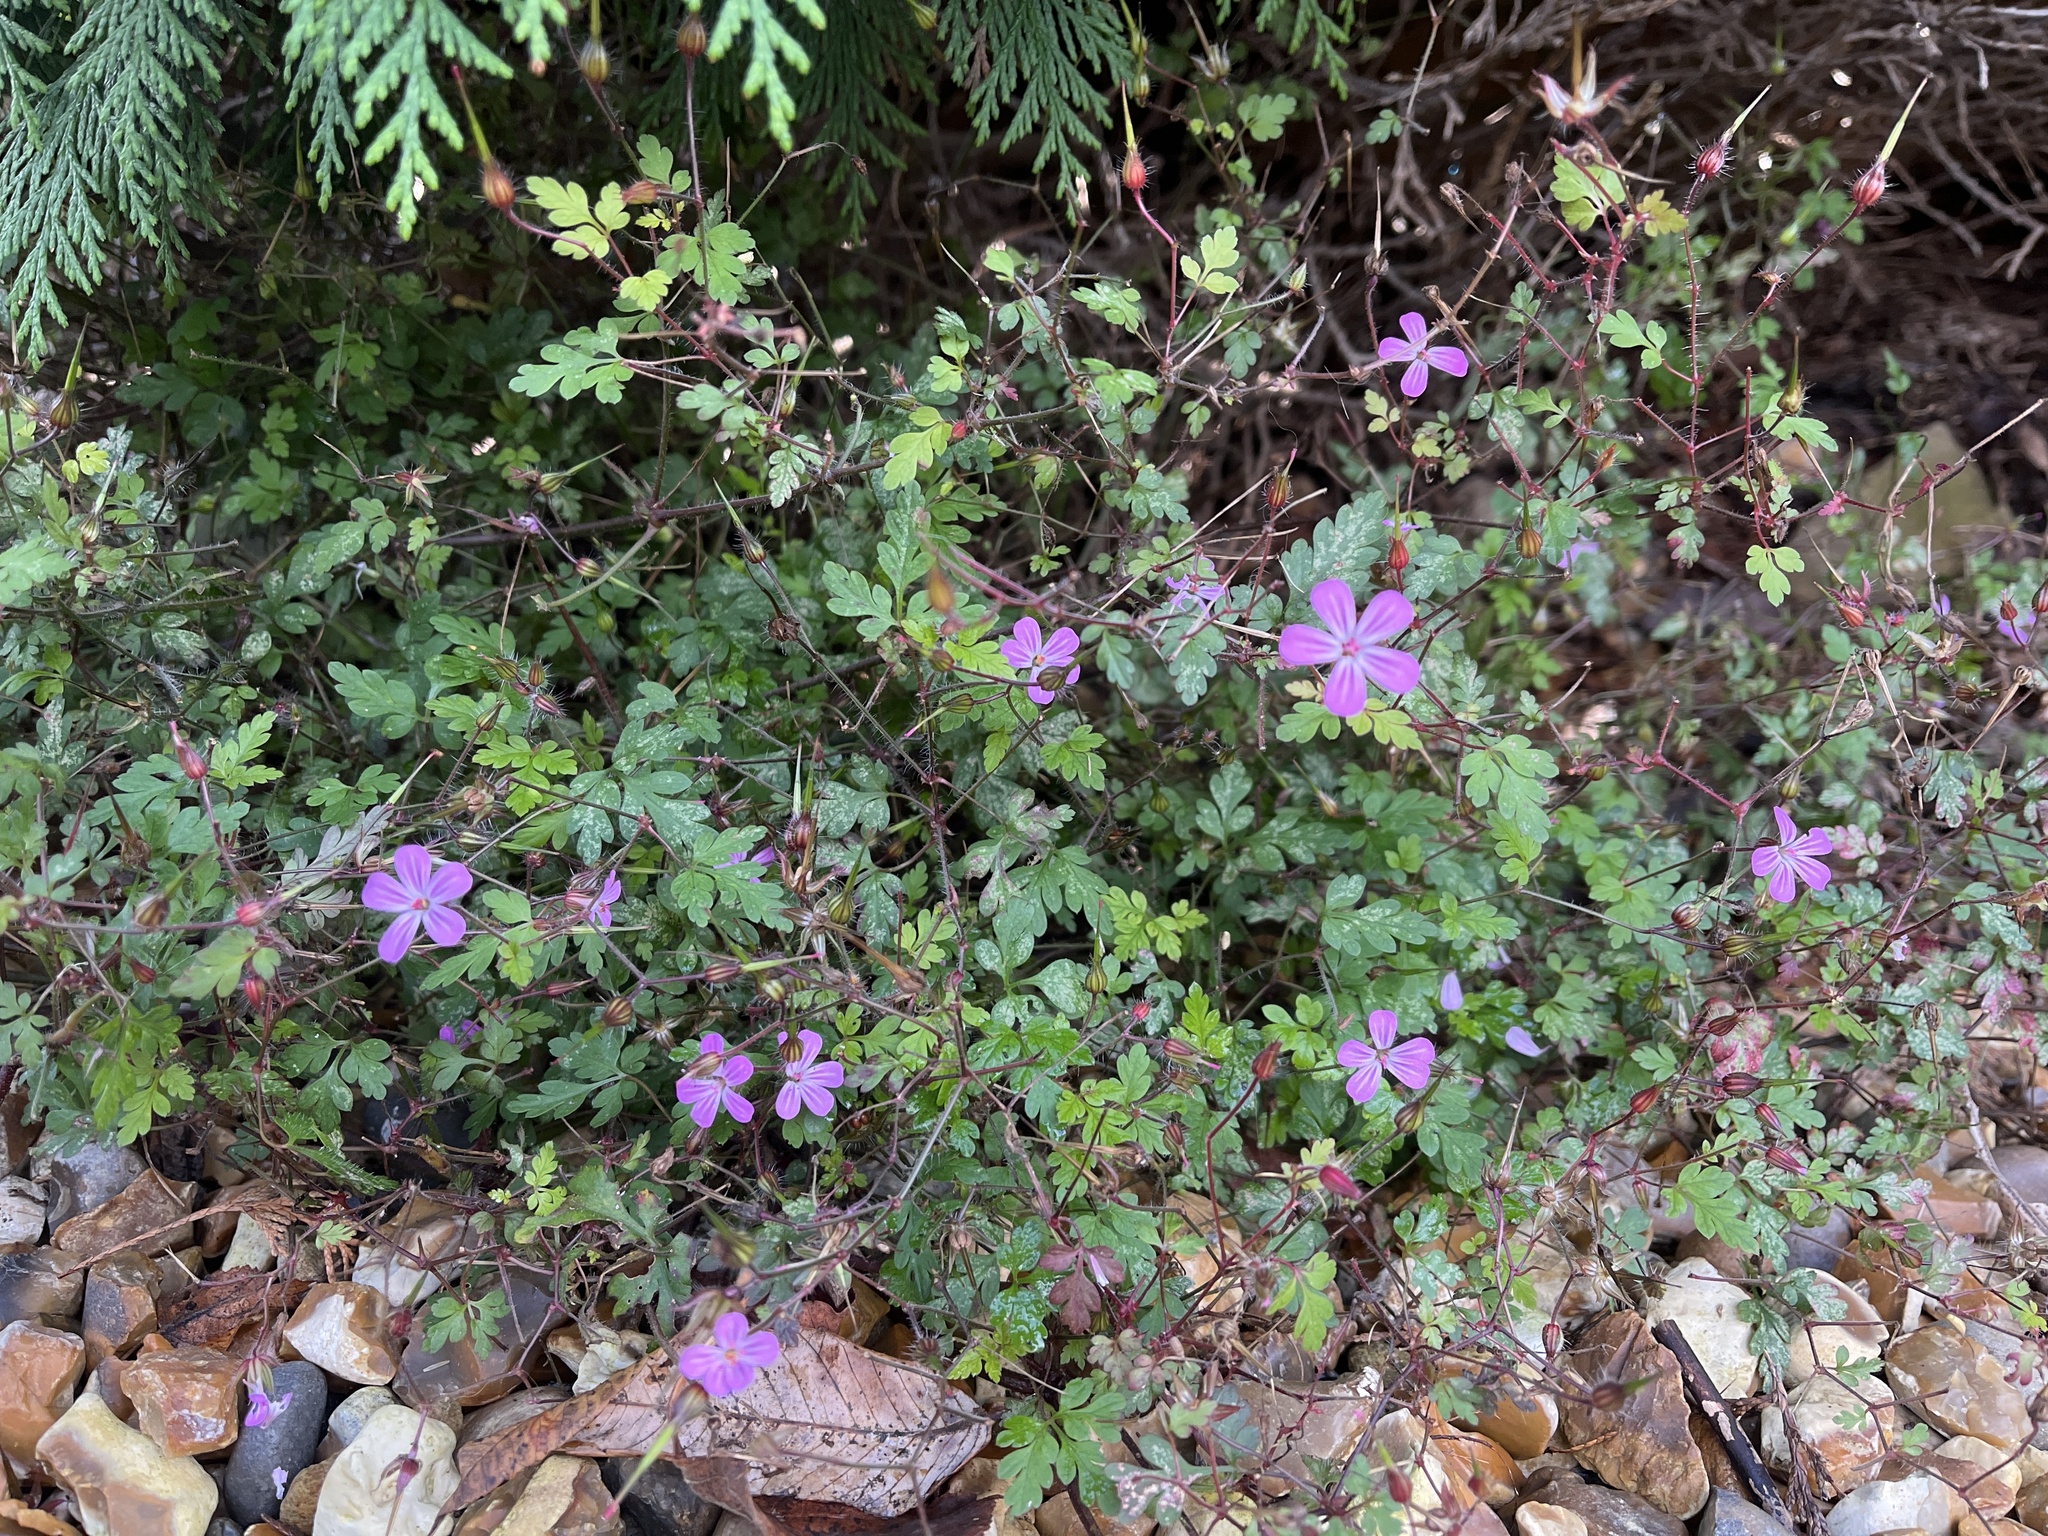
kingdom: Plantae
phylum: Tracheophyta
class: Magnoliopsida
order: Geraniales
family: Geraniaceae
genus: Geranium
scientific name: Geranium robertianum
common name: Herb-robert
